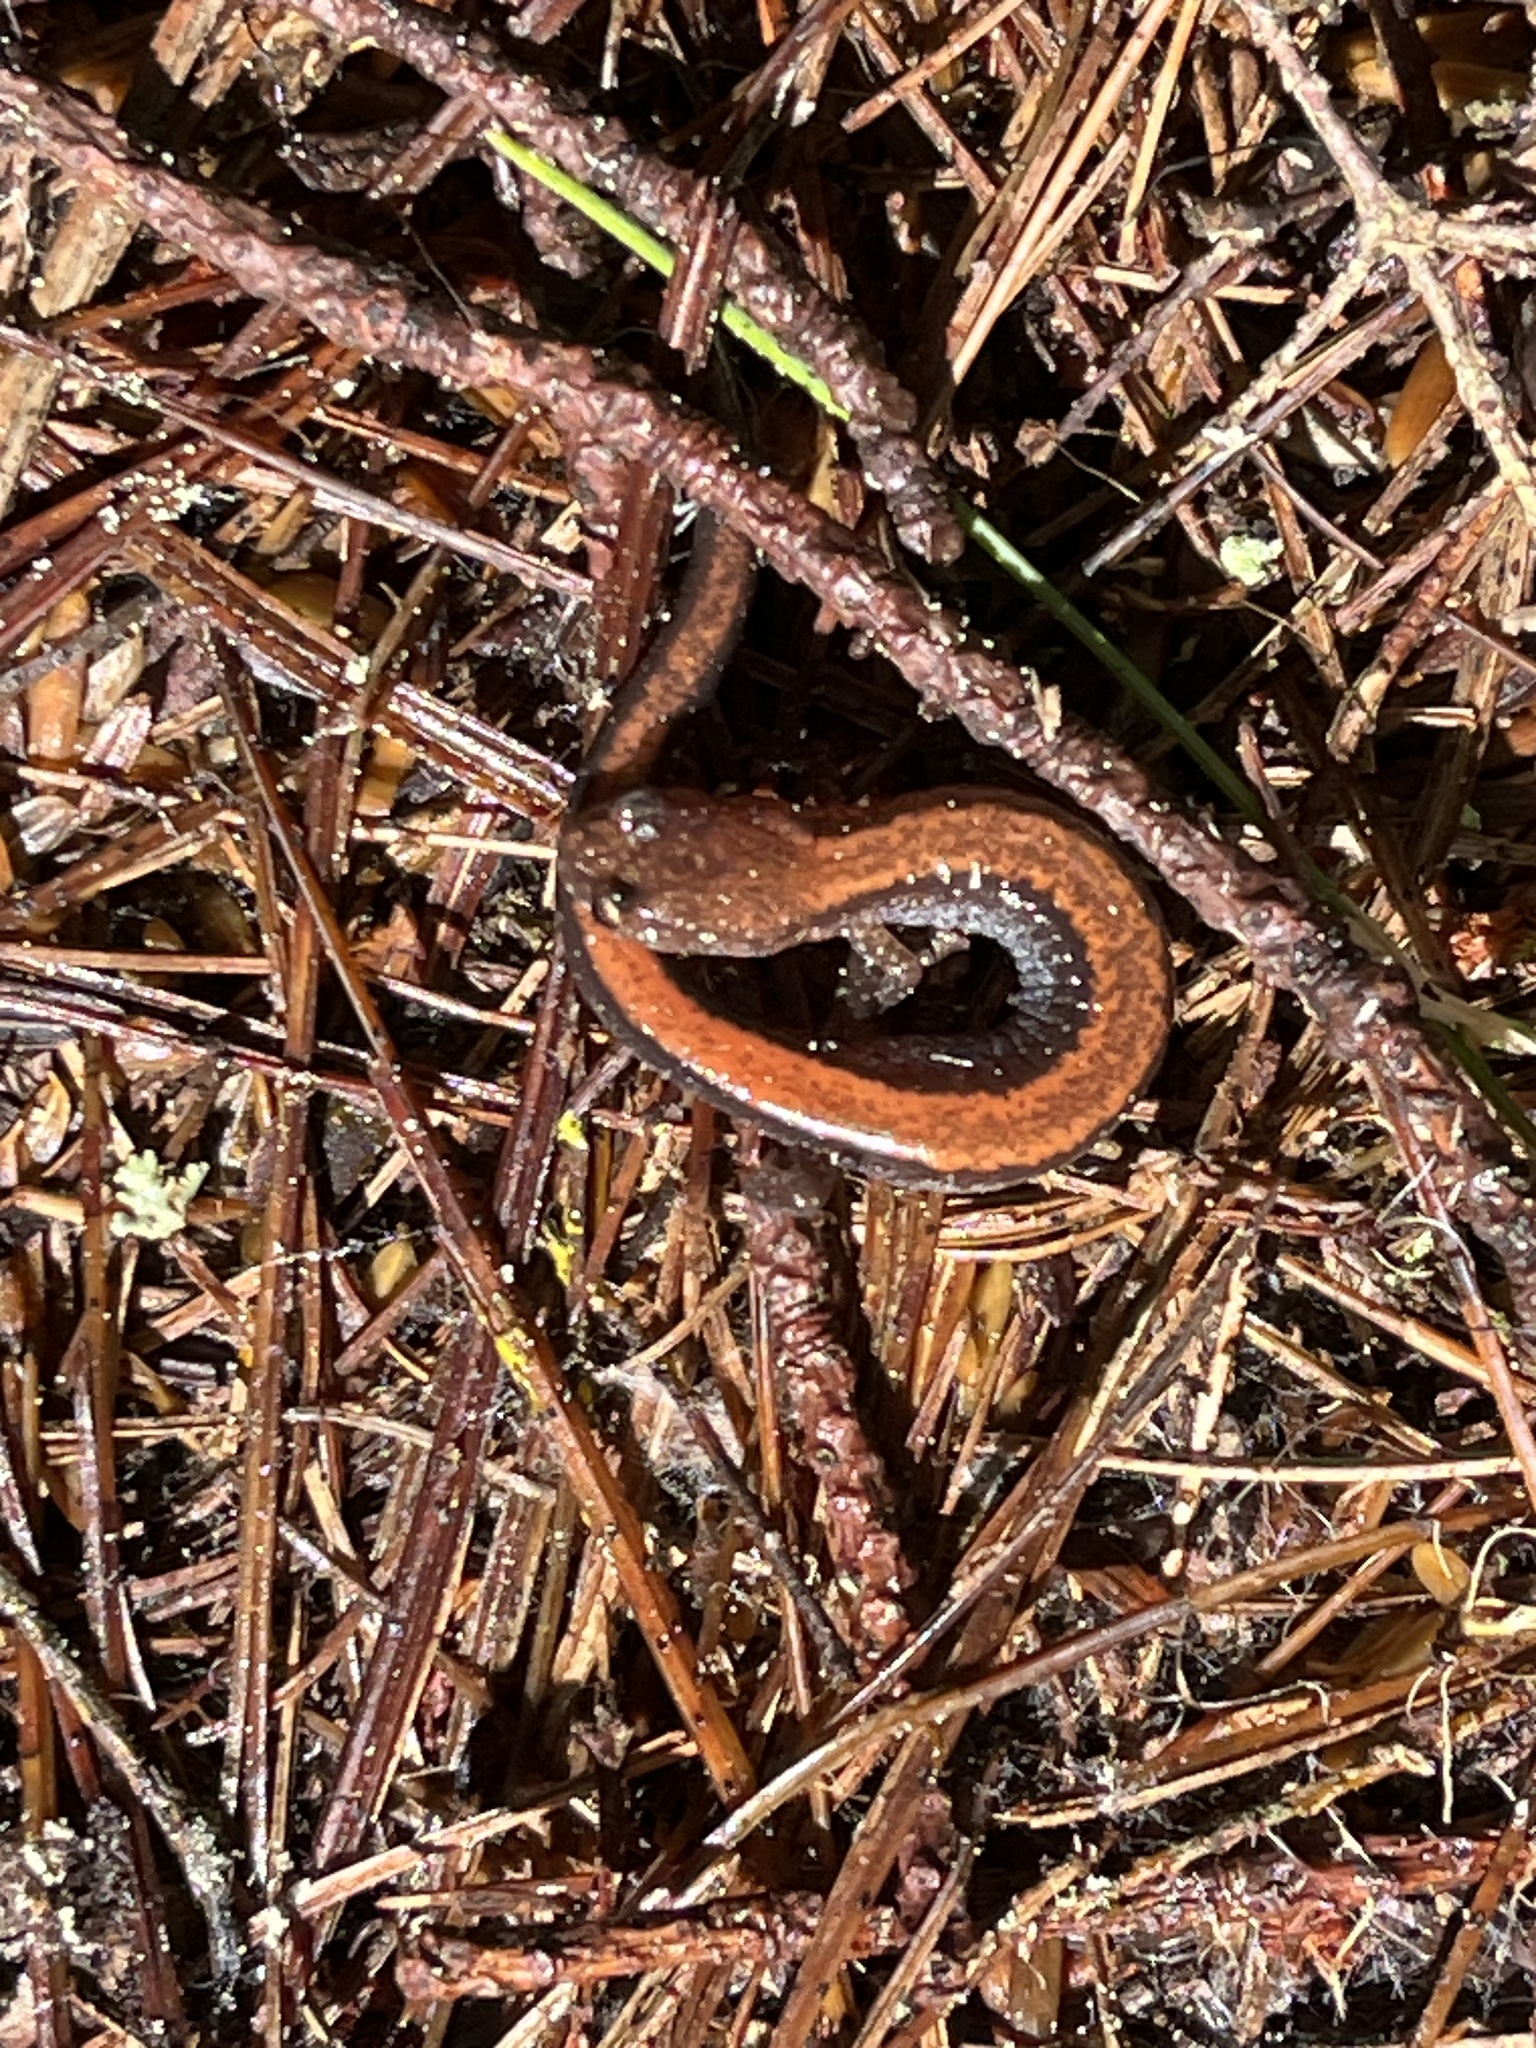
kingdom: Animalia
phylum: Chordata
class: Amphibia
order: Caudata
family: Plethodontidae
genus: Plethodon
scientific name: Plethodon cinereus
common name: Redback salamander
